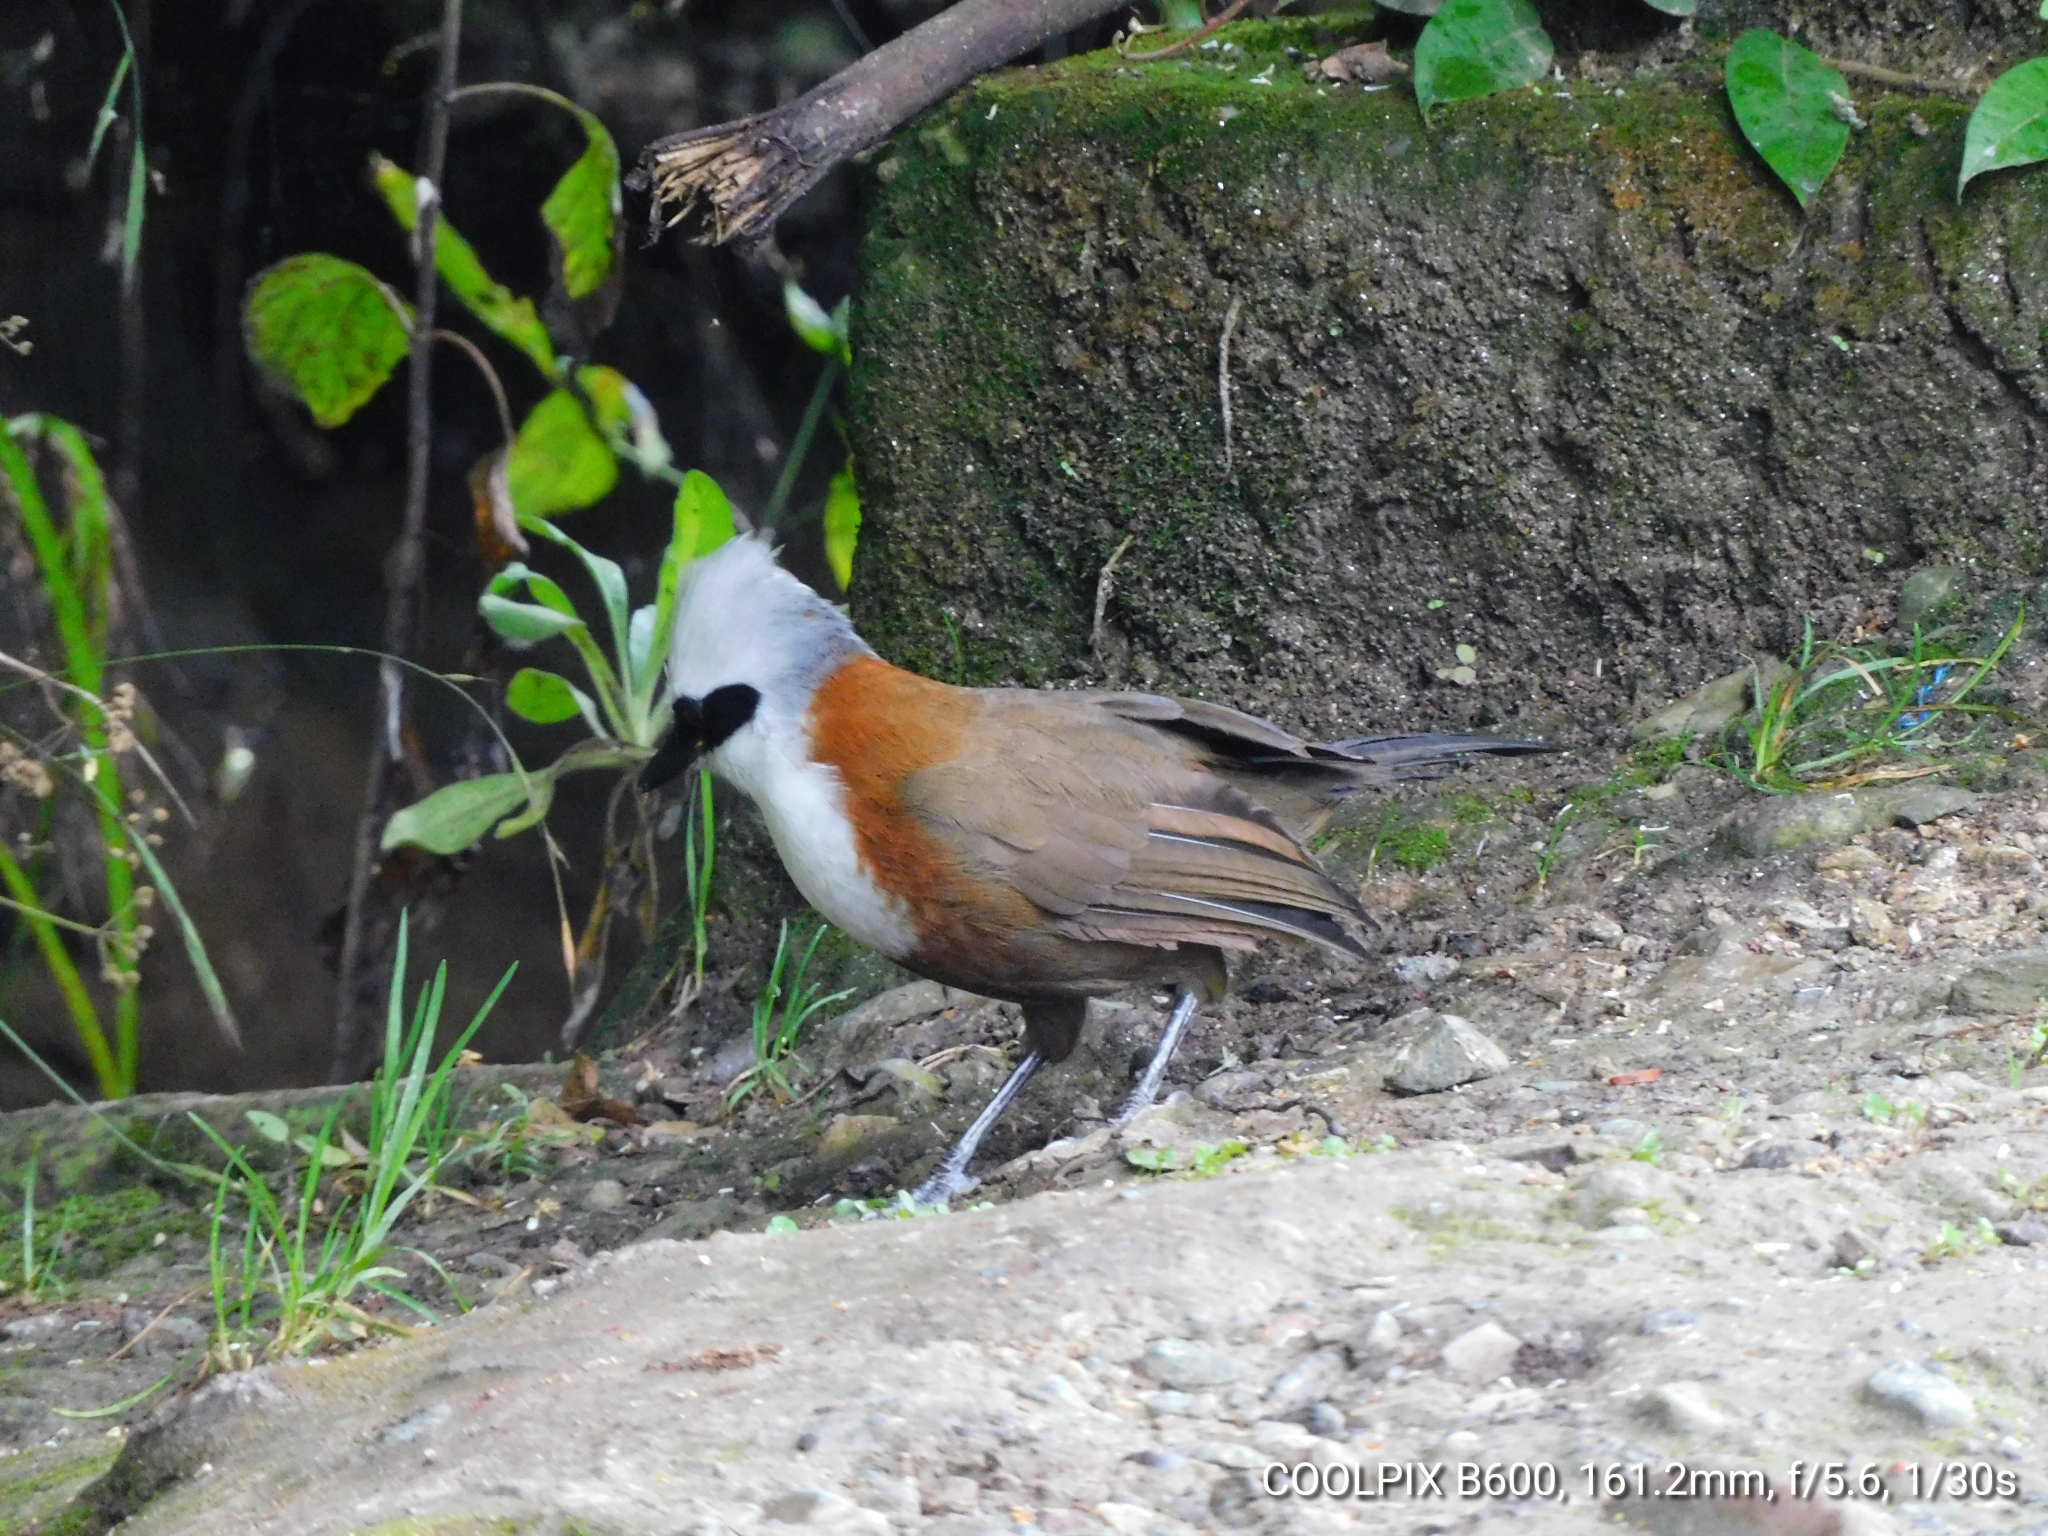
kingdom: Animalia
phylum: Chordata
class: Aves
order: Passeriformes
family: Leiothrichidae
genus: Garrulax
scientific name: Garrulax leucolophus
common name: White-crested laughingthrush
